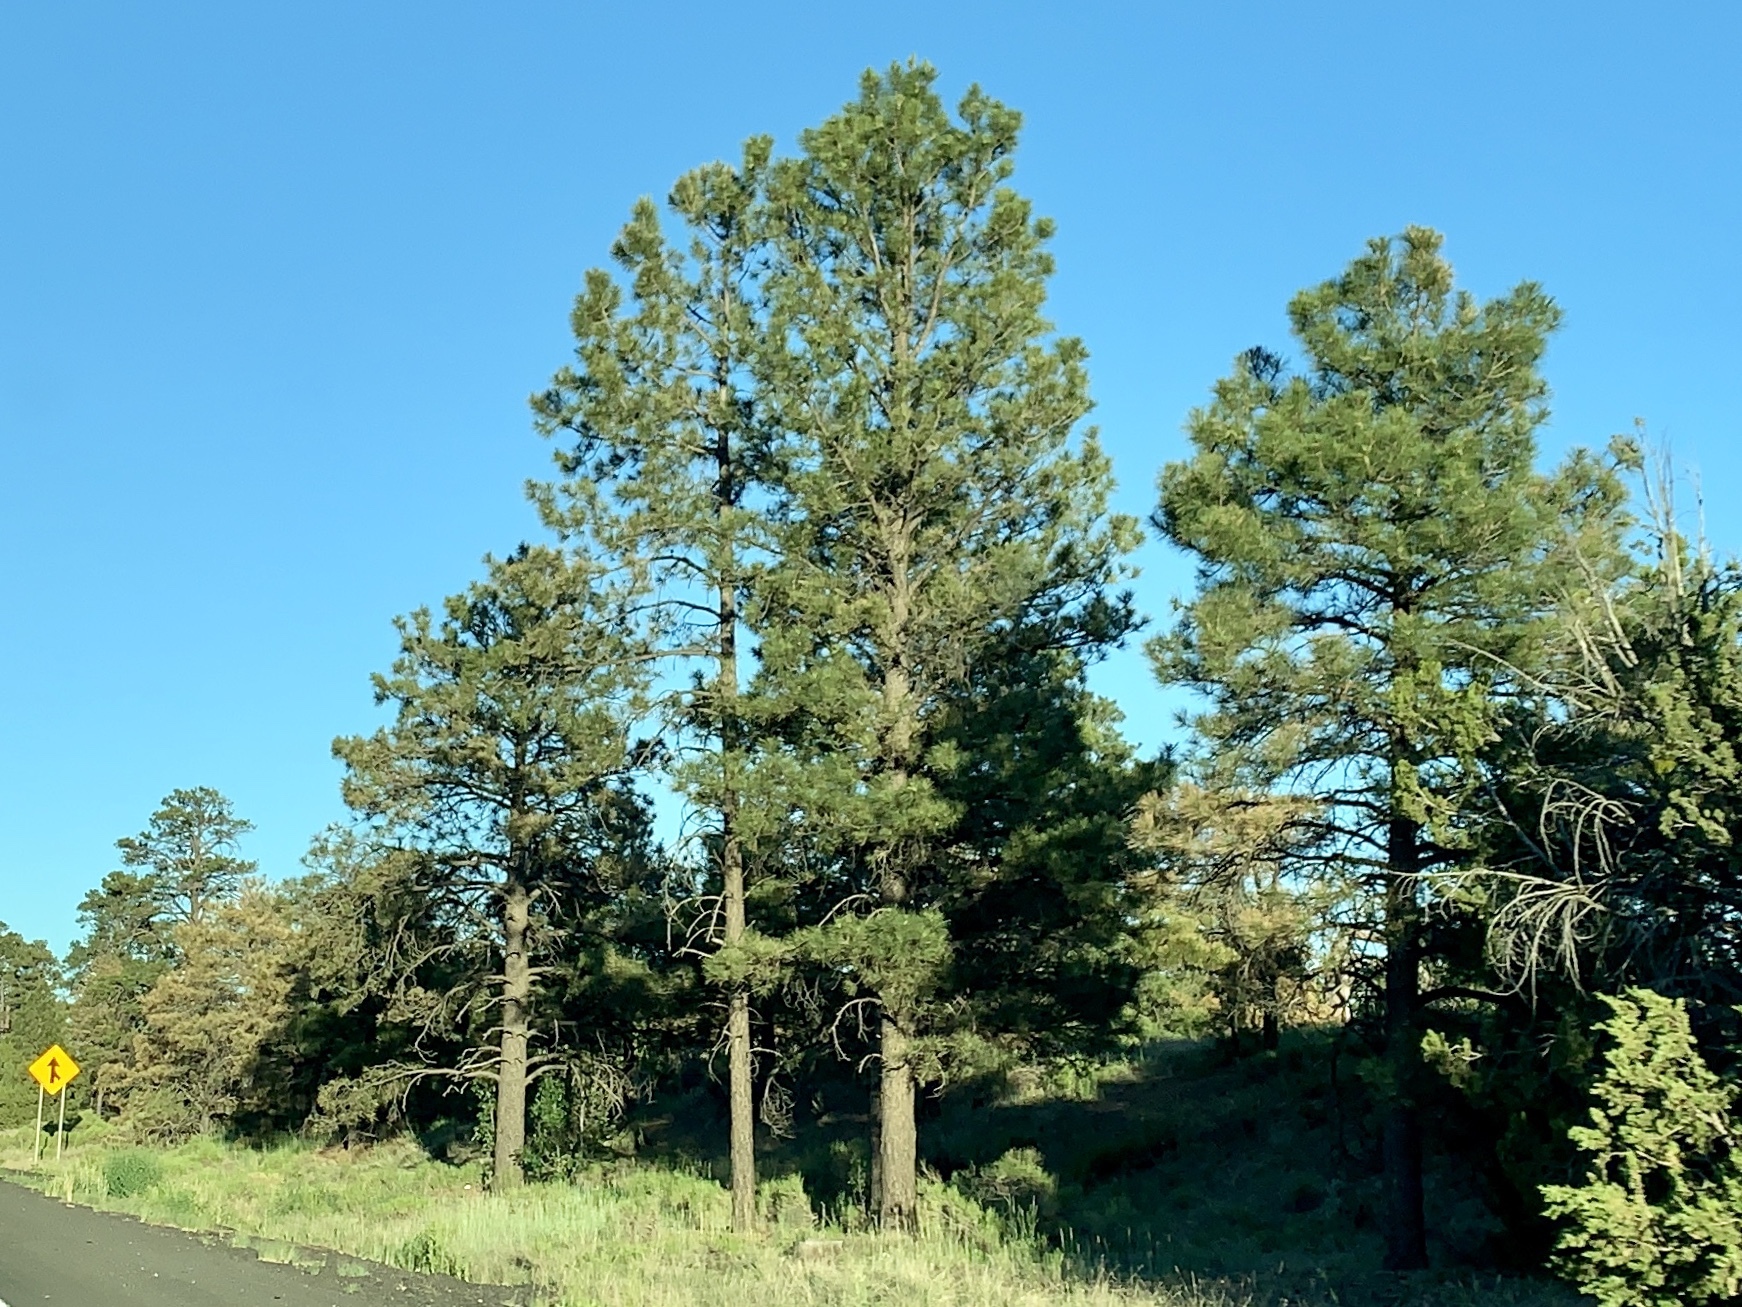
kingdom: Plantae
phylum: Tracheophyta
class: Pinopsida
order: Pinales
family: Pinaceae
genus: Pinus
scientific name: Pinus ponderosa
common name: Western yellow-pine
